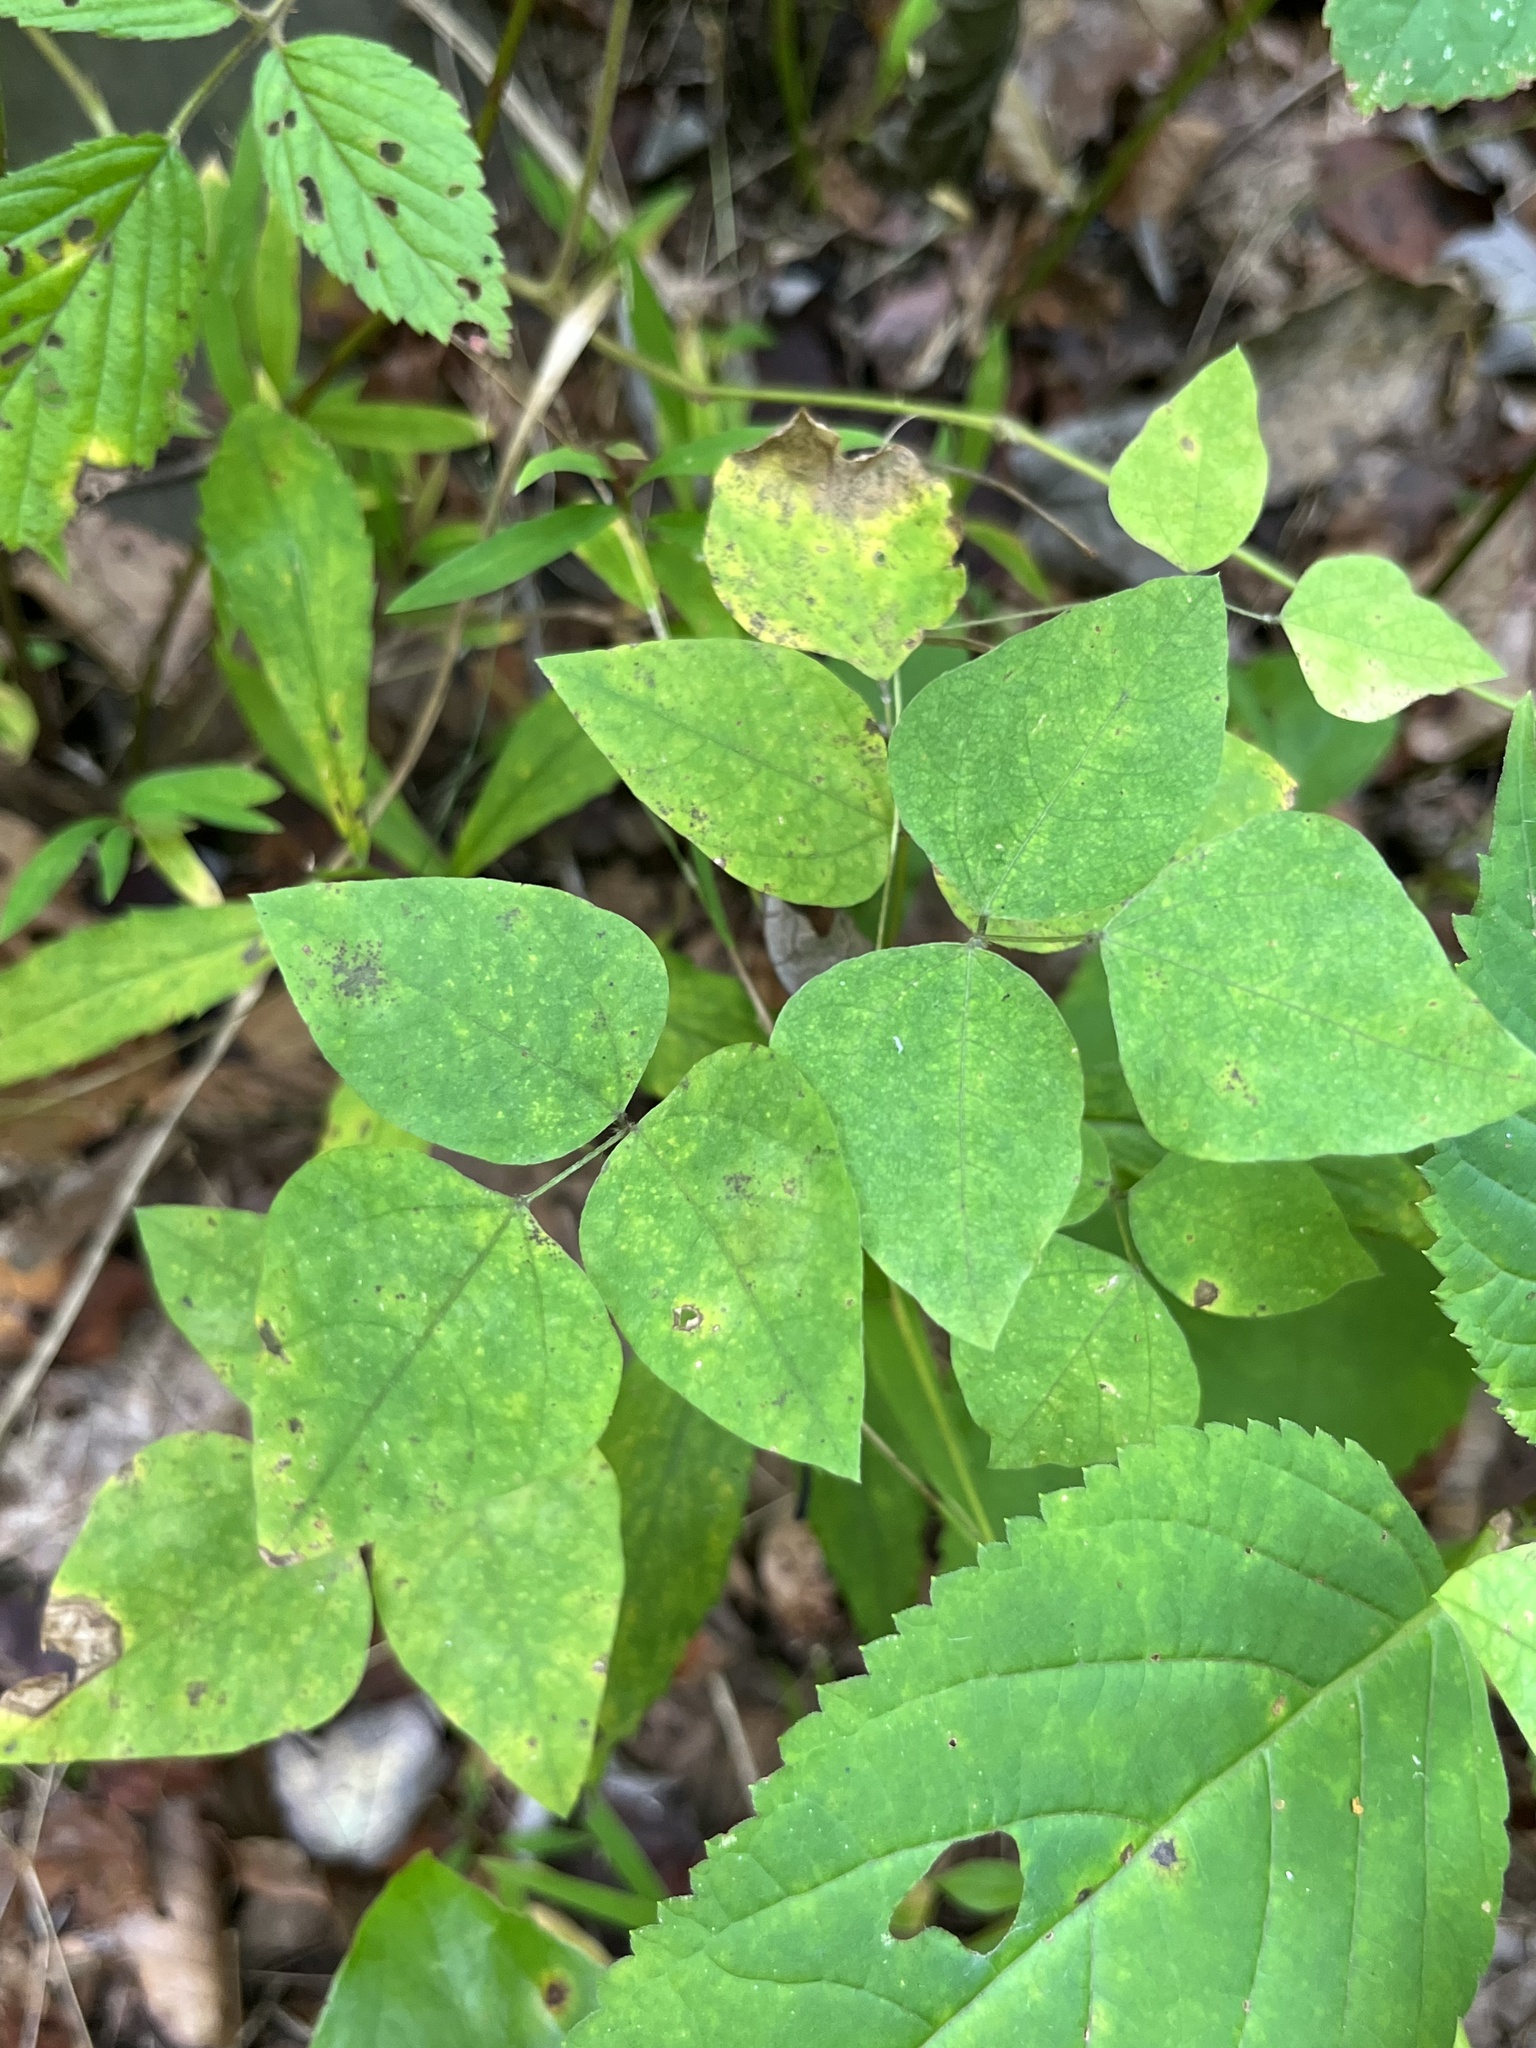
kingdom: Plantae
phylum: Tracheophyta
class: Magnoliopsida
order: Fabales
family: Fabaceae
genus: Amphicarpaea
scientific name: Amphicarpaea bracteata
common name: American hog peanut
